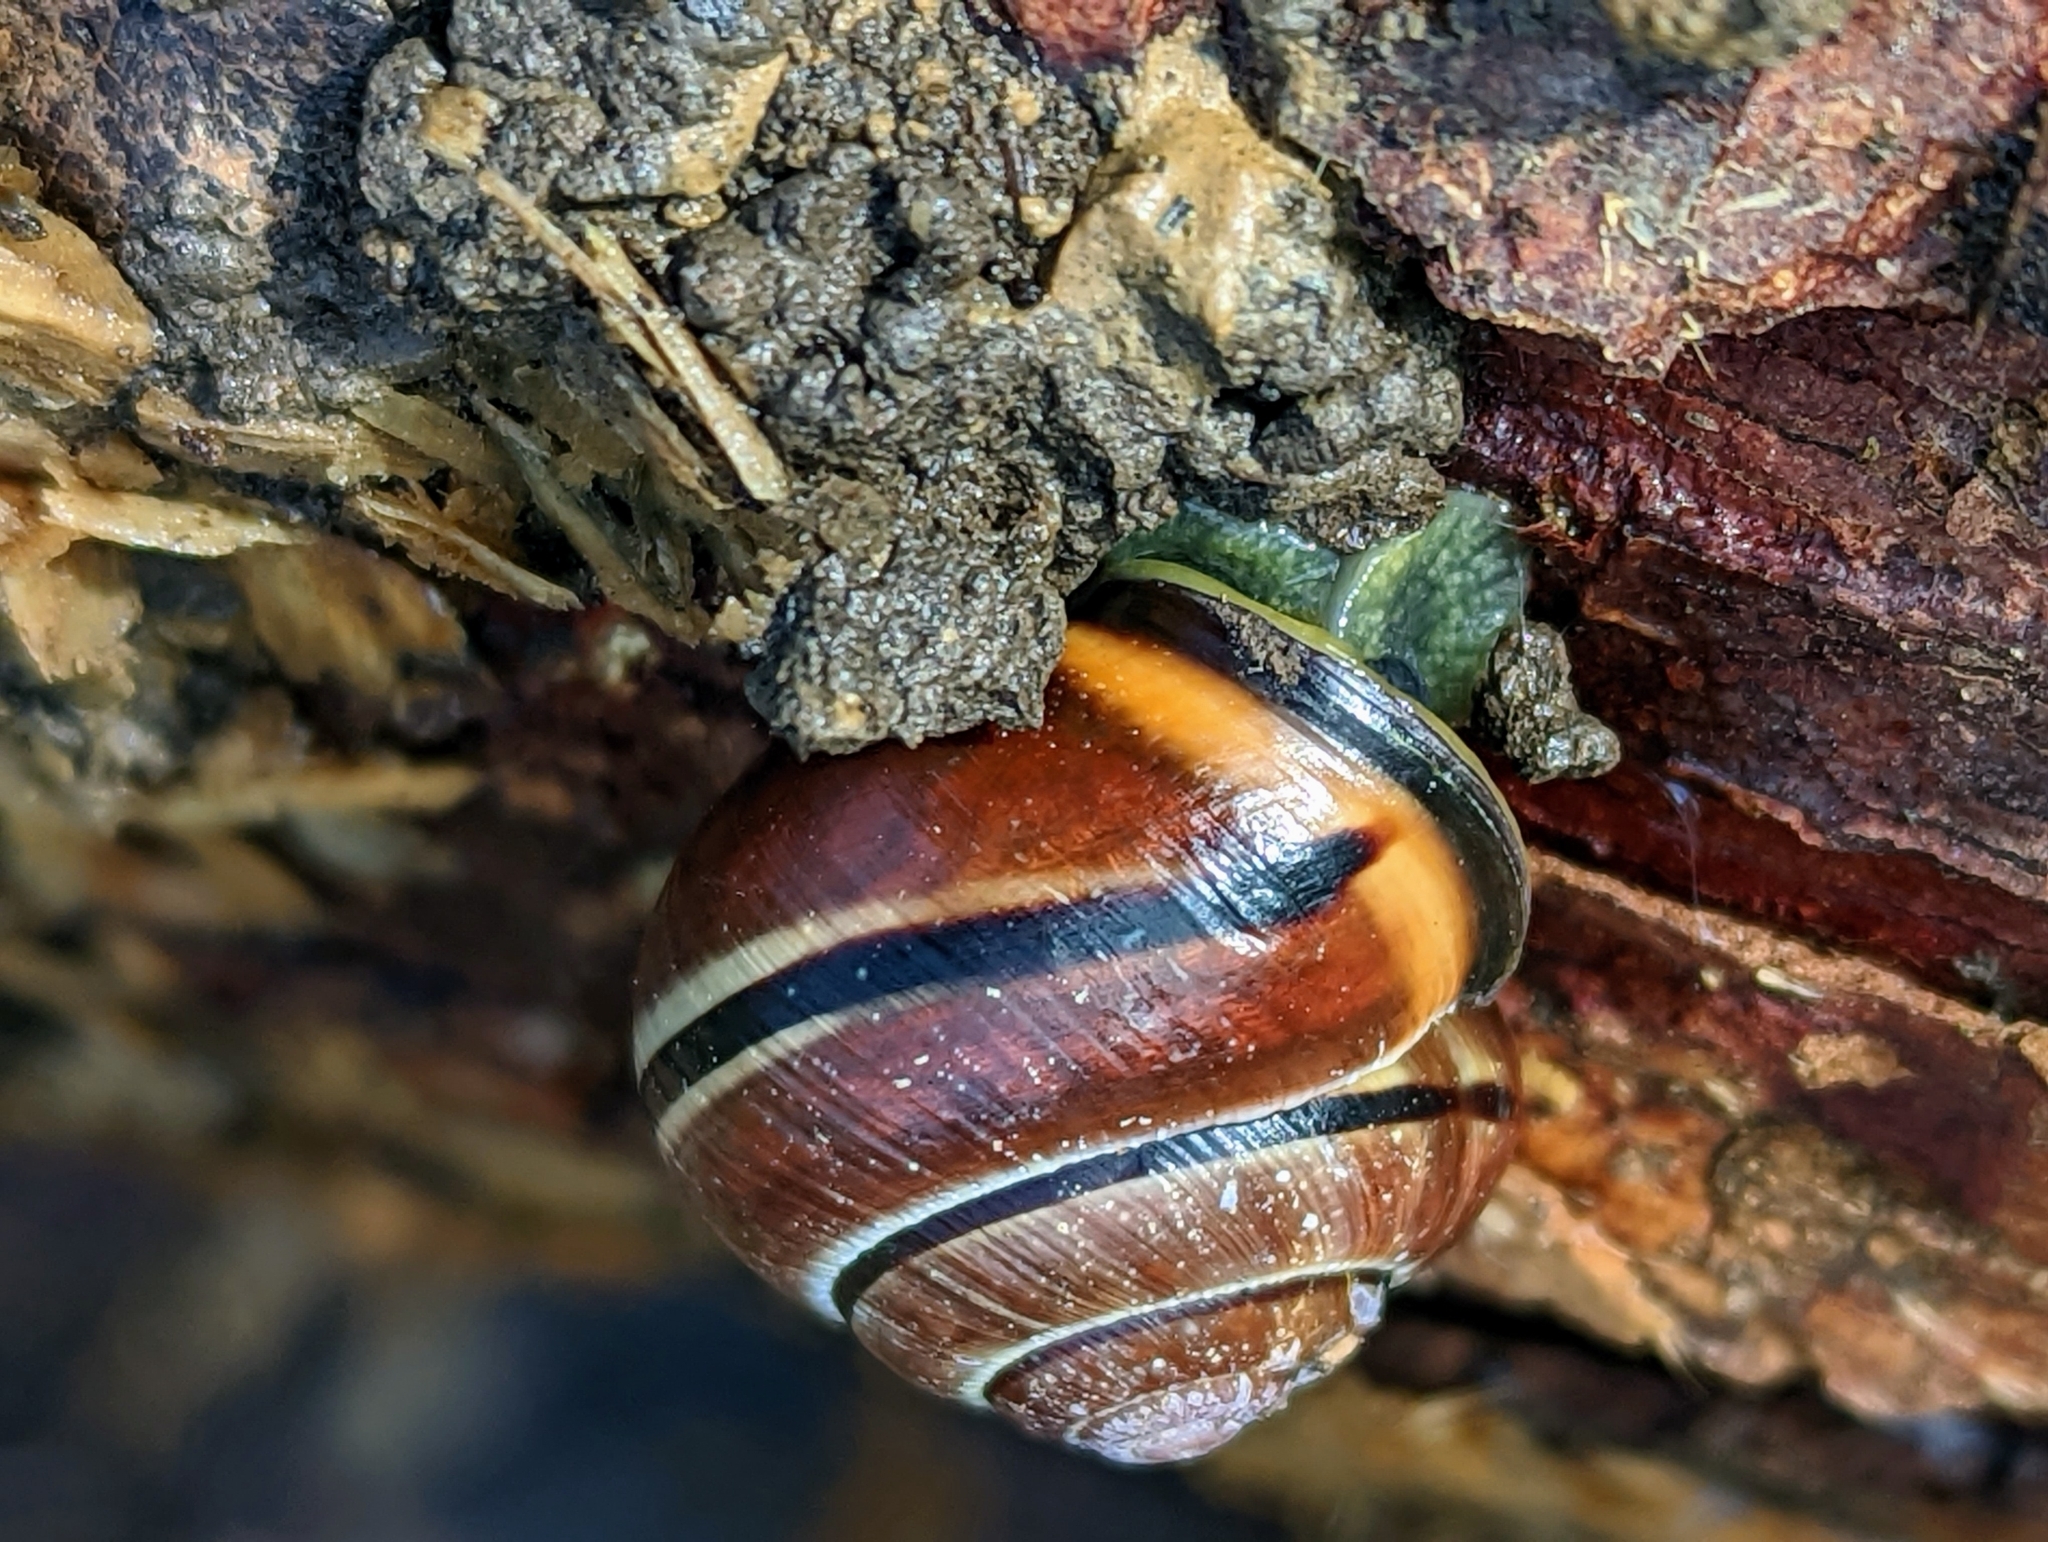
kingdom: Animalia
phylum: Mollusca
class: Gastropoda
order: Stylommatophora
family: Helicidae
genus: Cepaea
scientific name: Cepaea nemoralis
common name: Grovesnail
